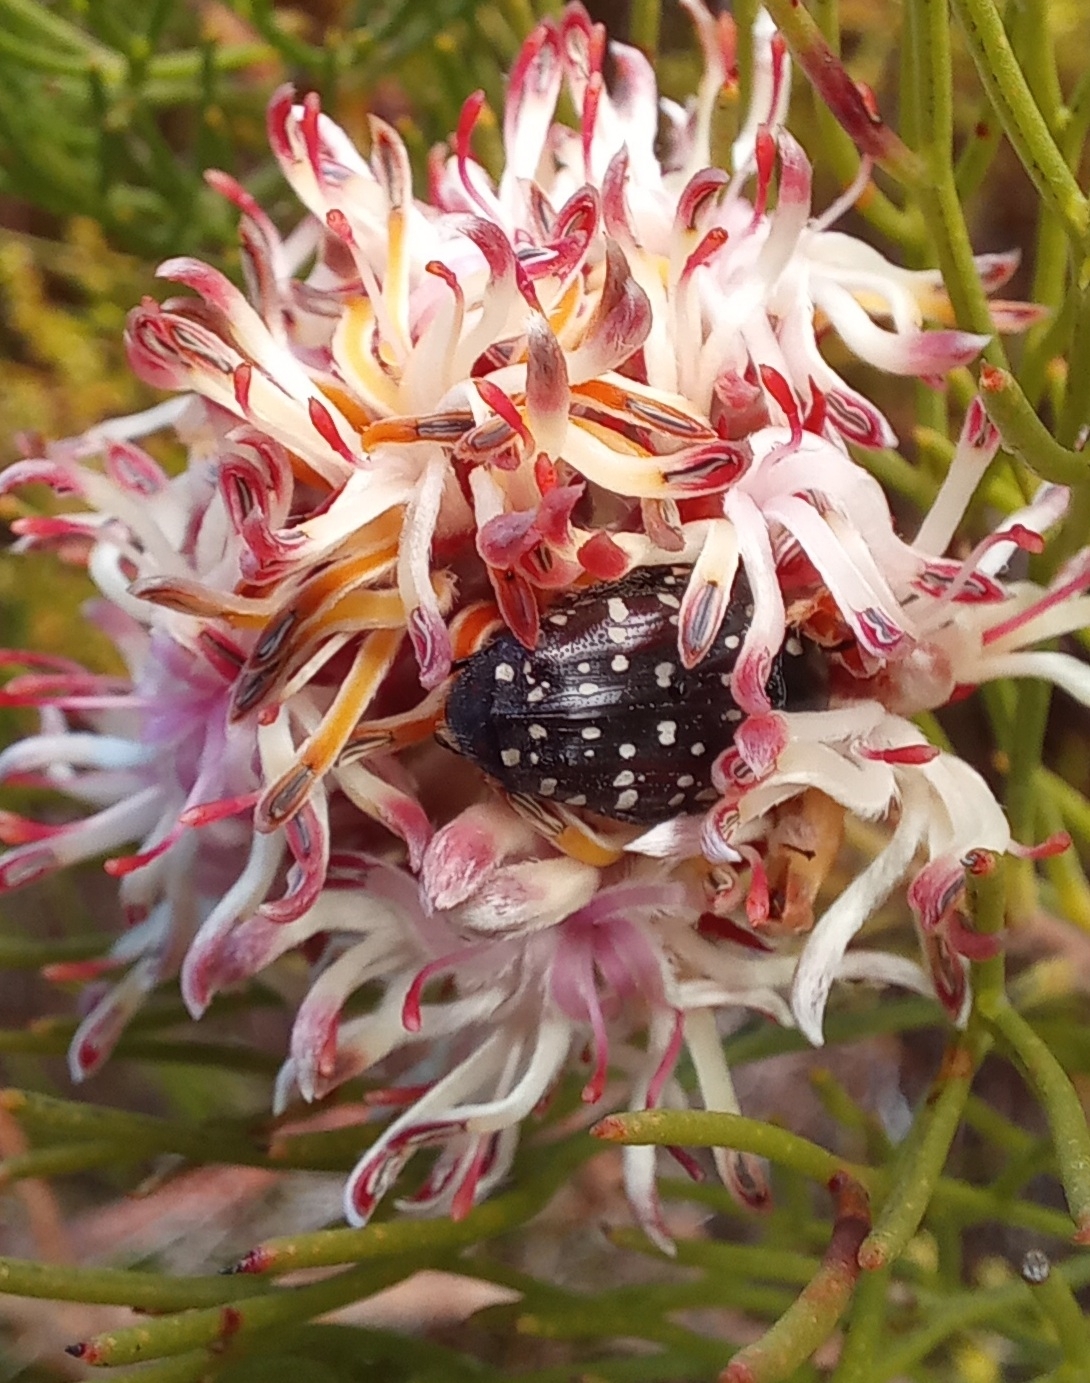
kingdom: Animalia
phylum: Arthropoda
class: Insecta
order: Coleoptera
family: Scarabaeidae
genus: Oxythyrea
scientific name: Oxythyrea
